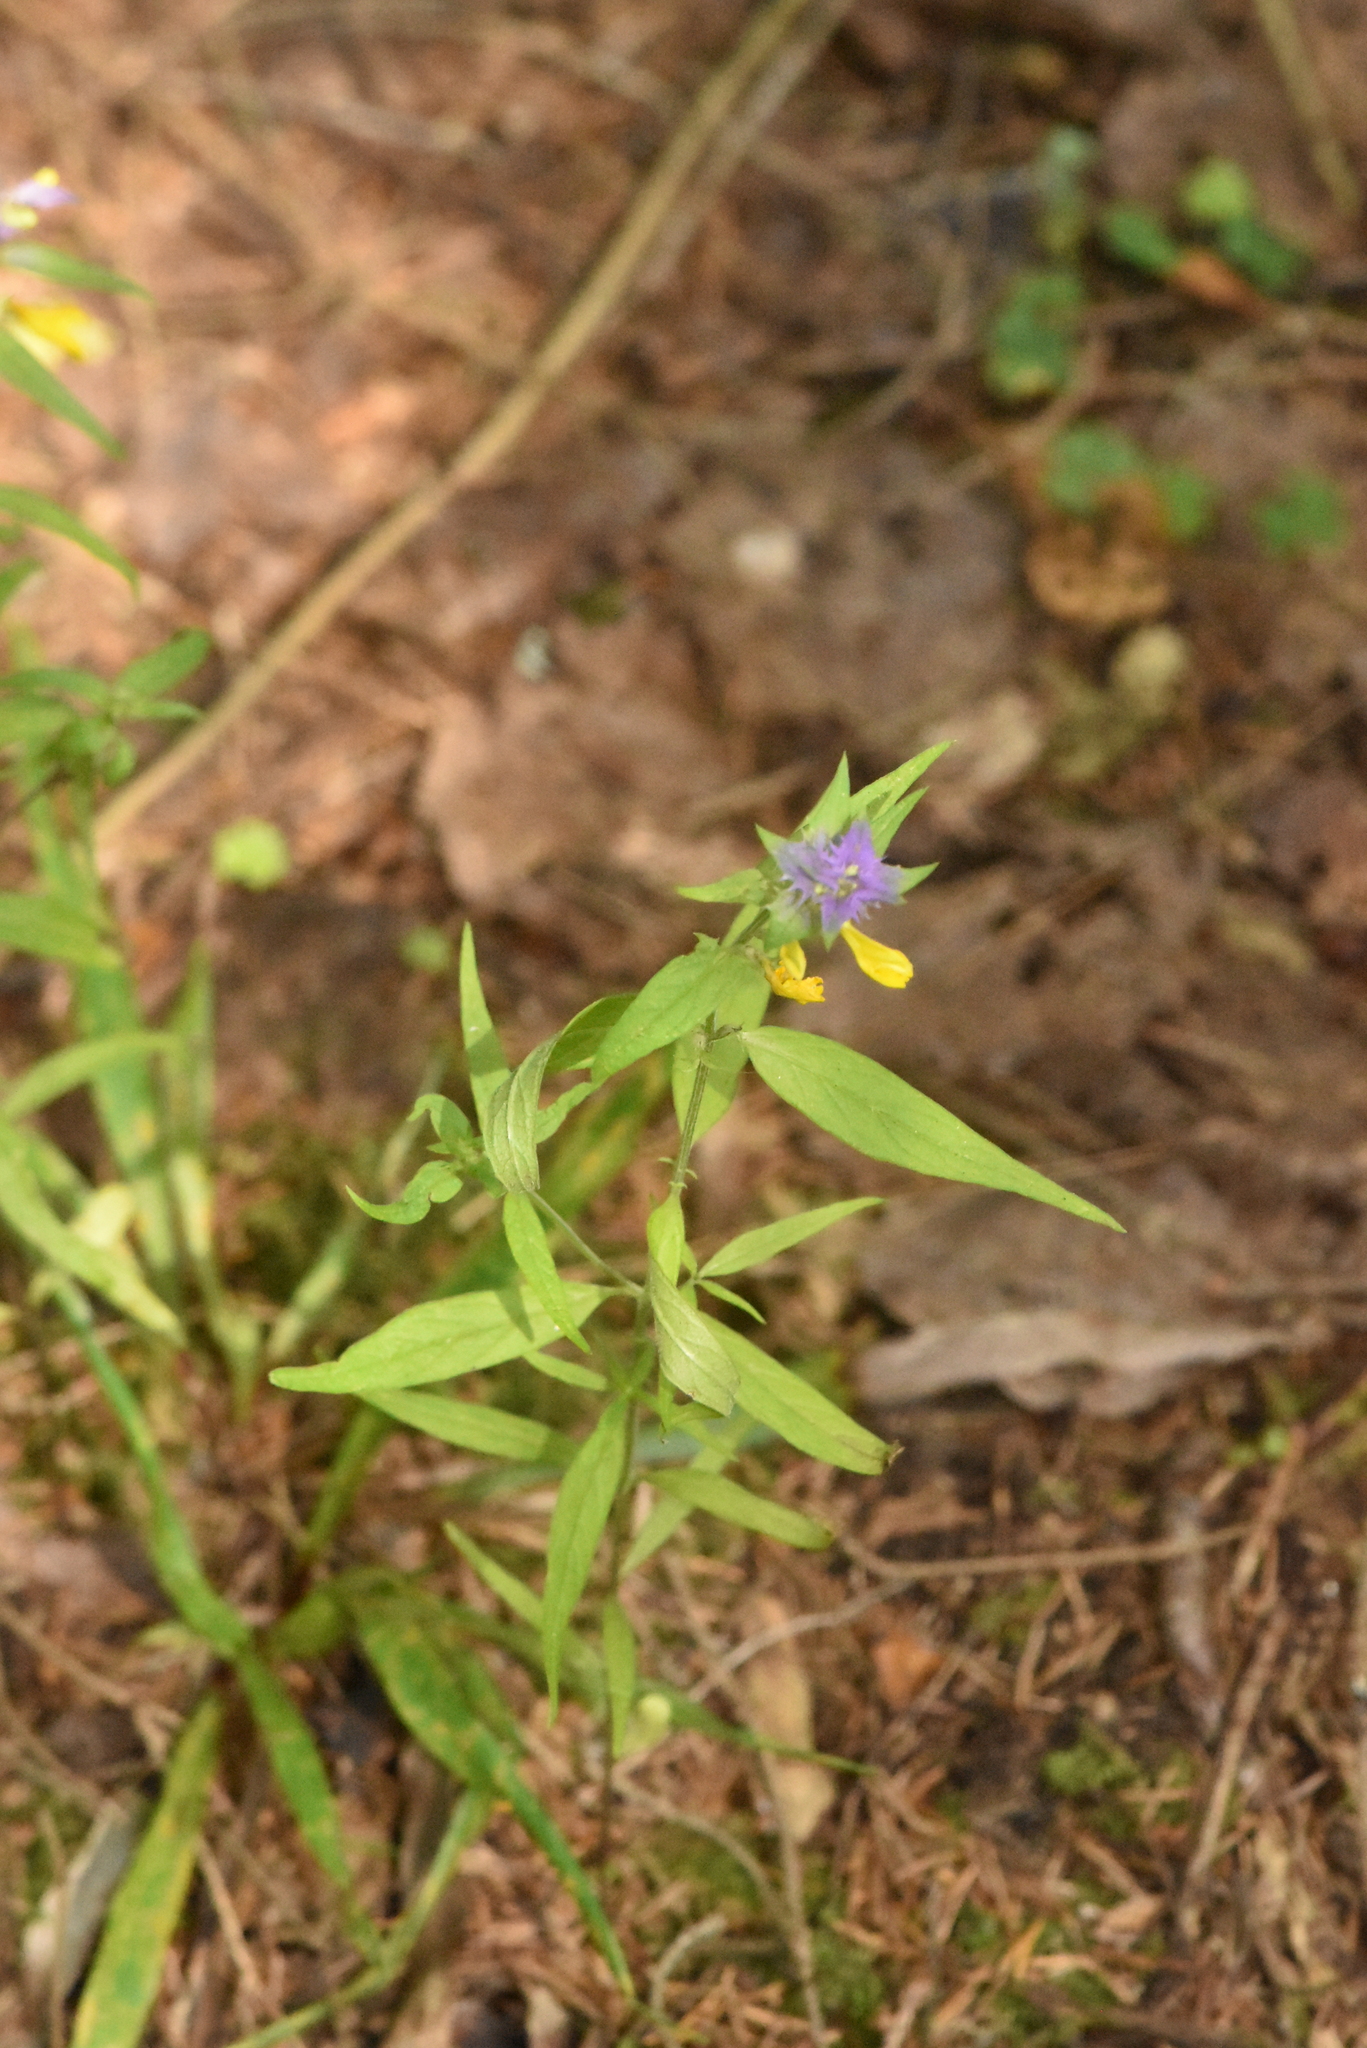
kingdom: Plantae
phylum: Tracheophyta
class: Magnoliopsida
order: Lamiales
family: Orobanchaceae
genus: Melampyrum
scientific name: Melampyrum nemorosum
